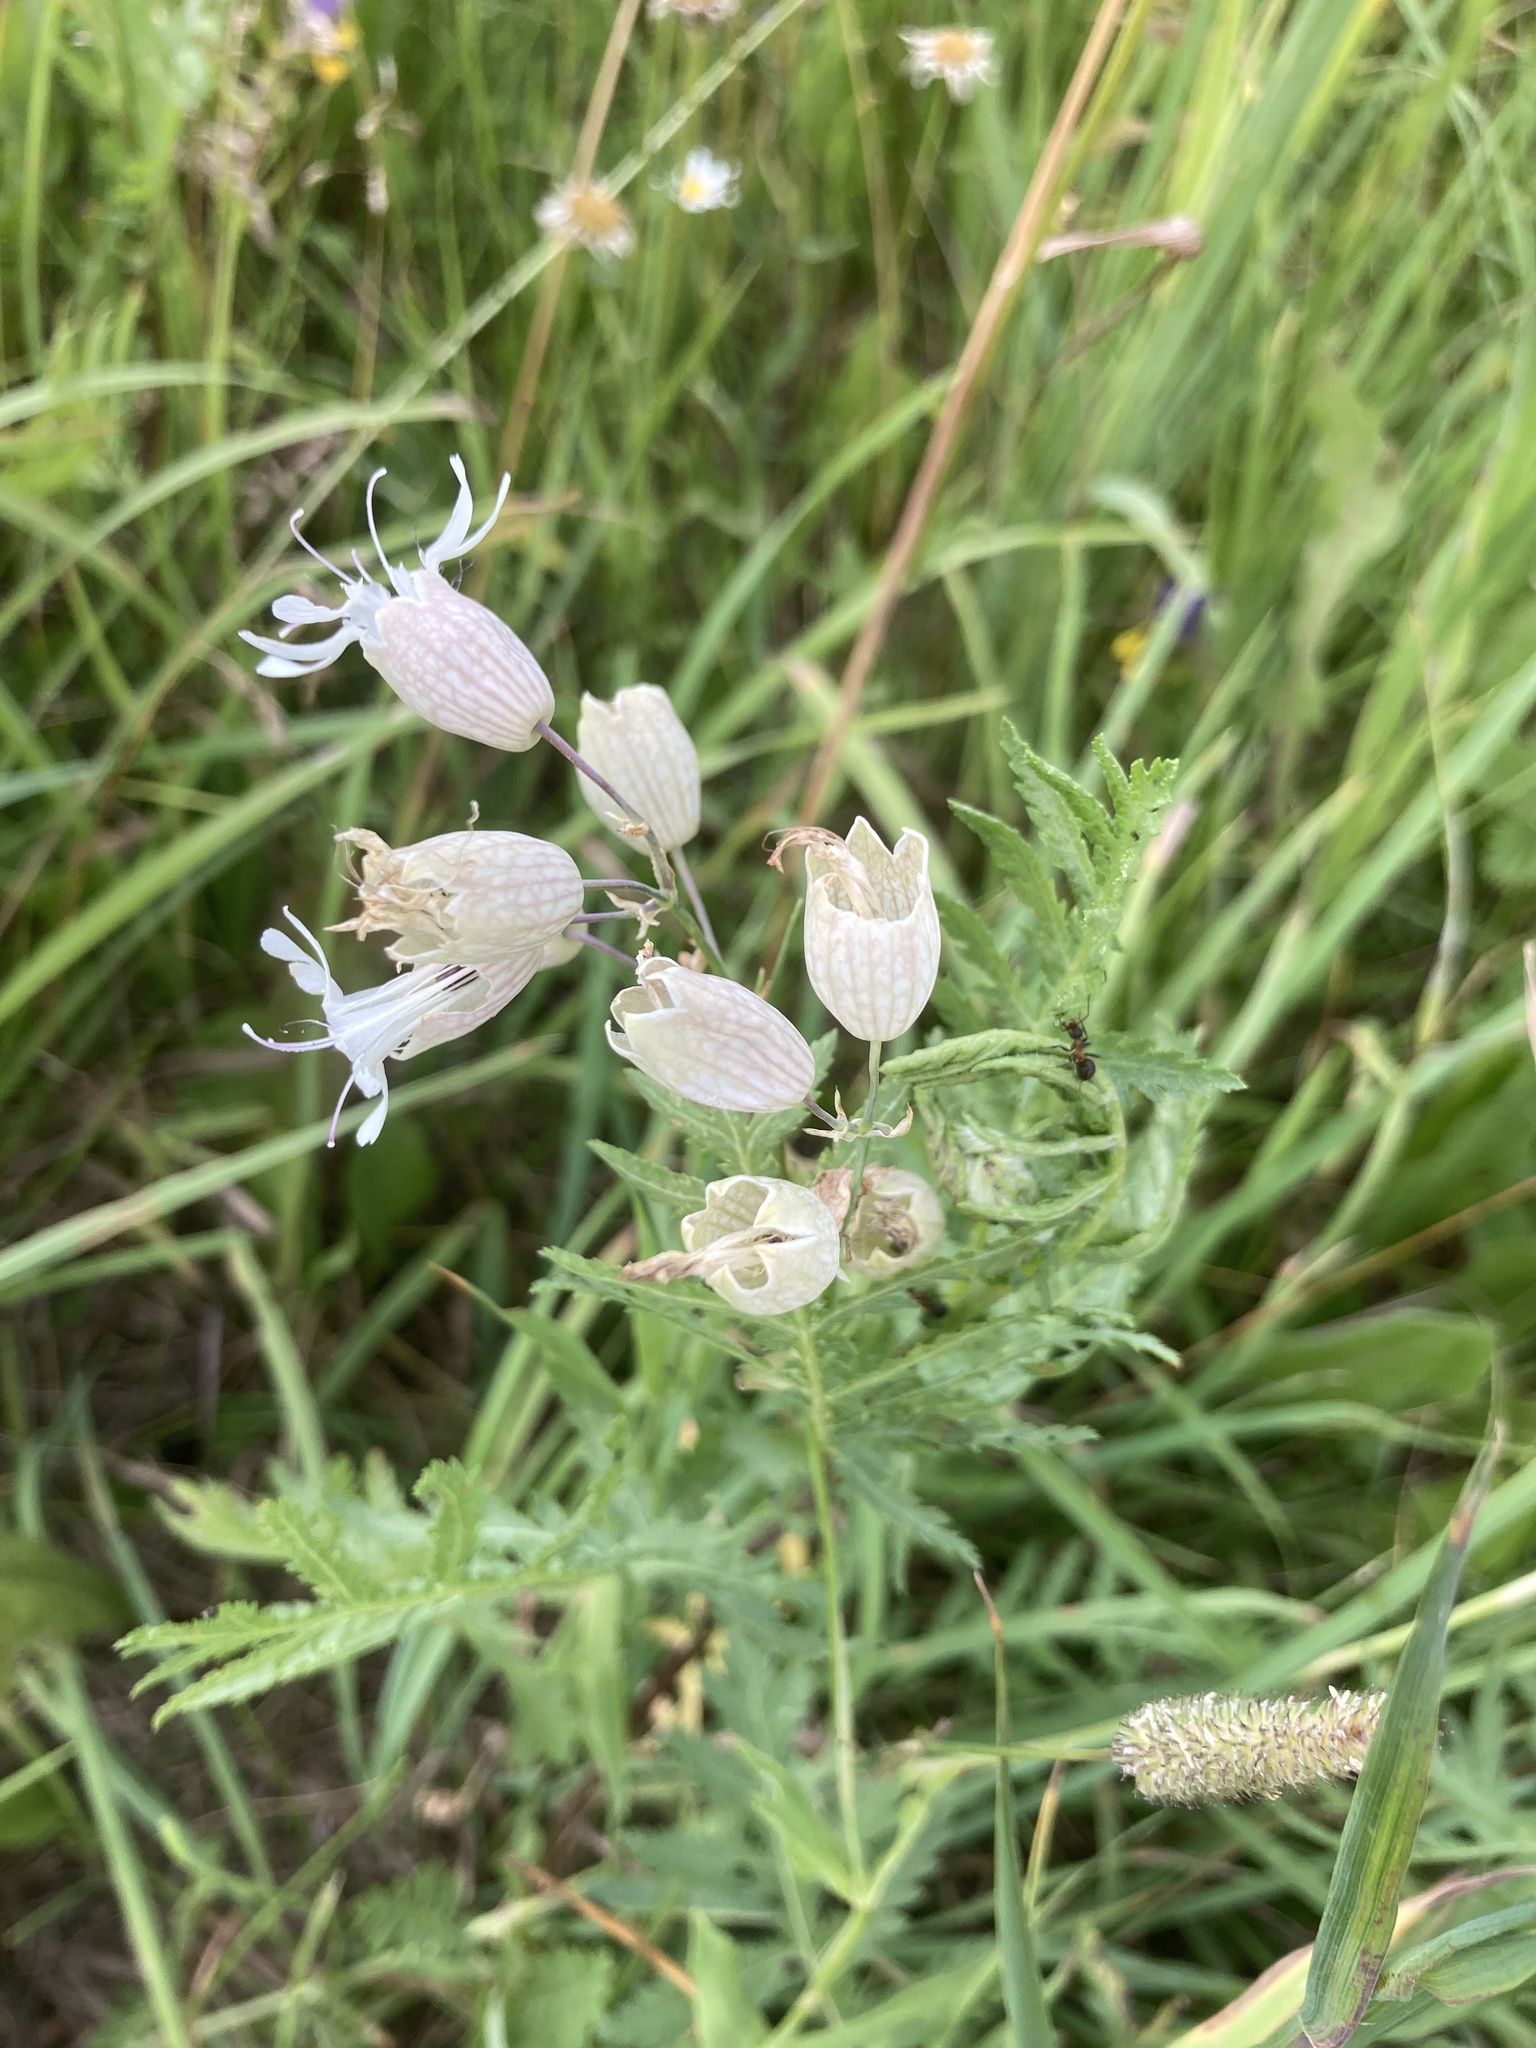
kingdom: Plantae
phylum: Tracheophyta
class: Magnoliopsida
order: Caryophyllales
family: Caryophyllaceae
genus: Silene
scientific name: Silene vulgaris
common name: Bladder campion
